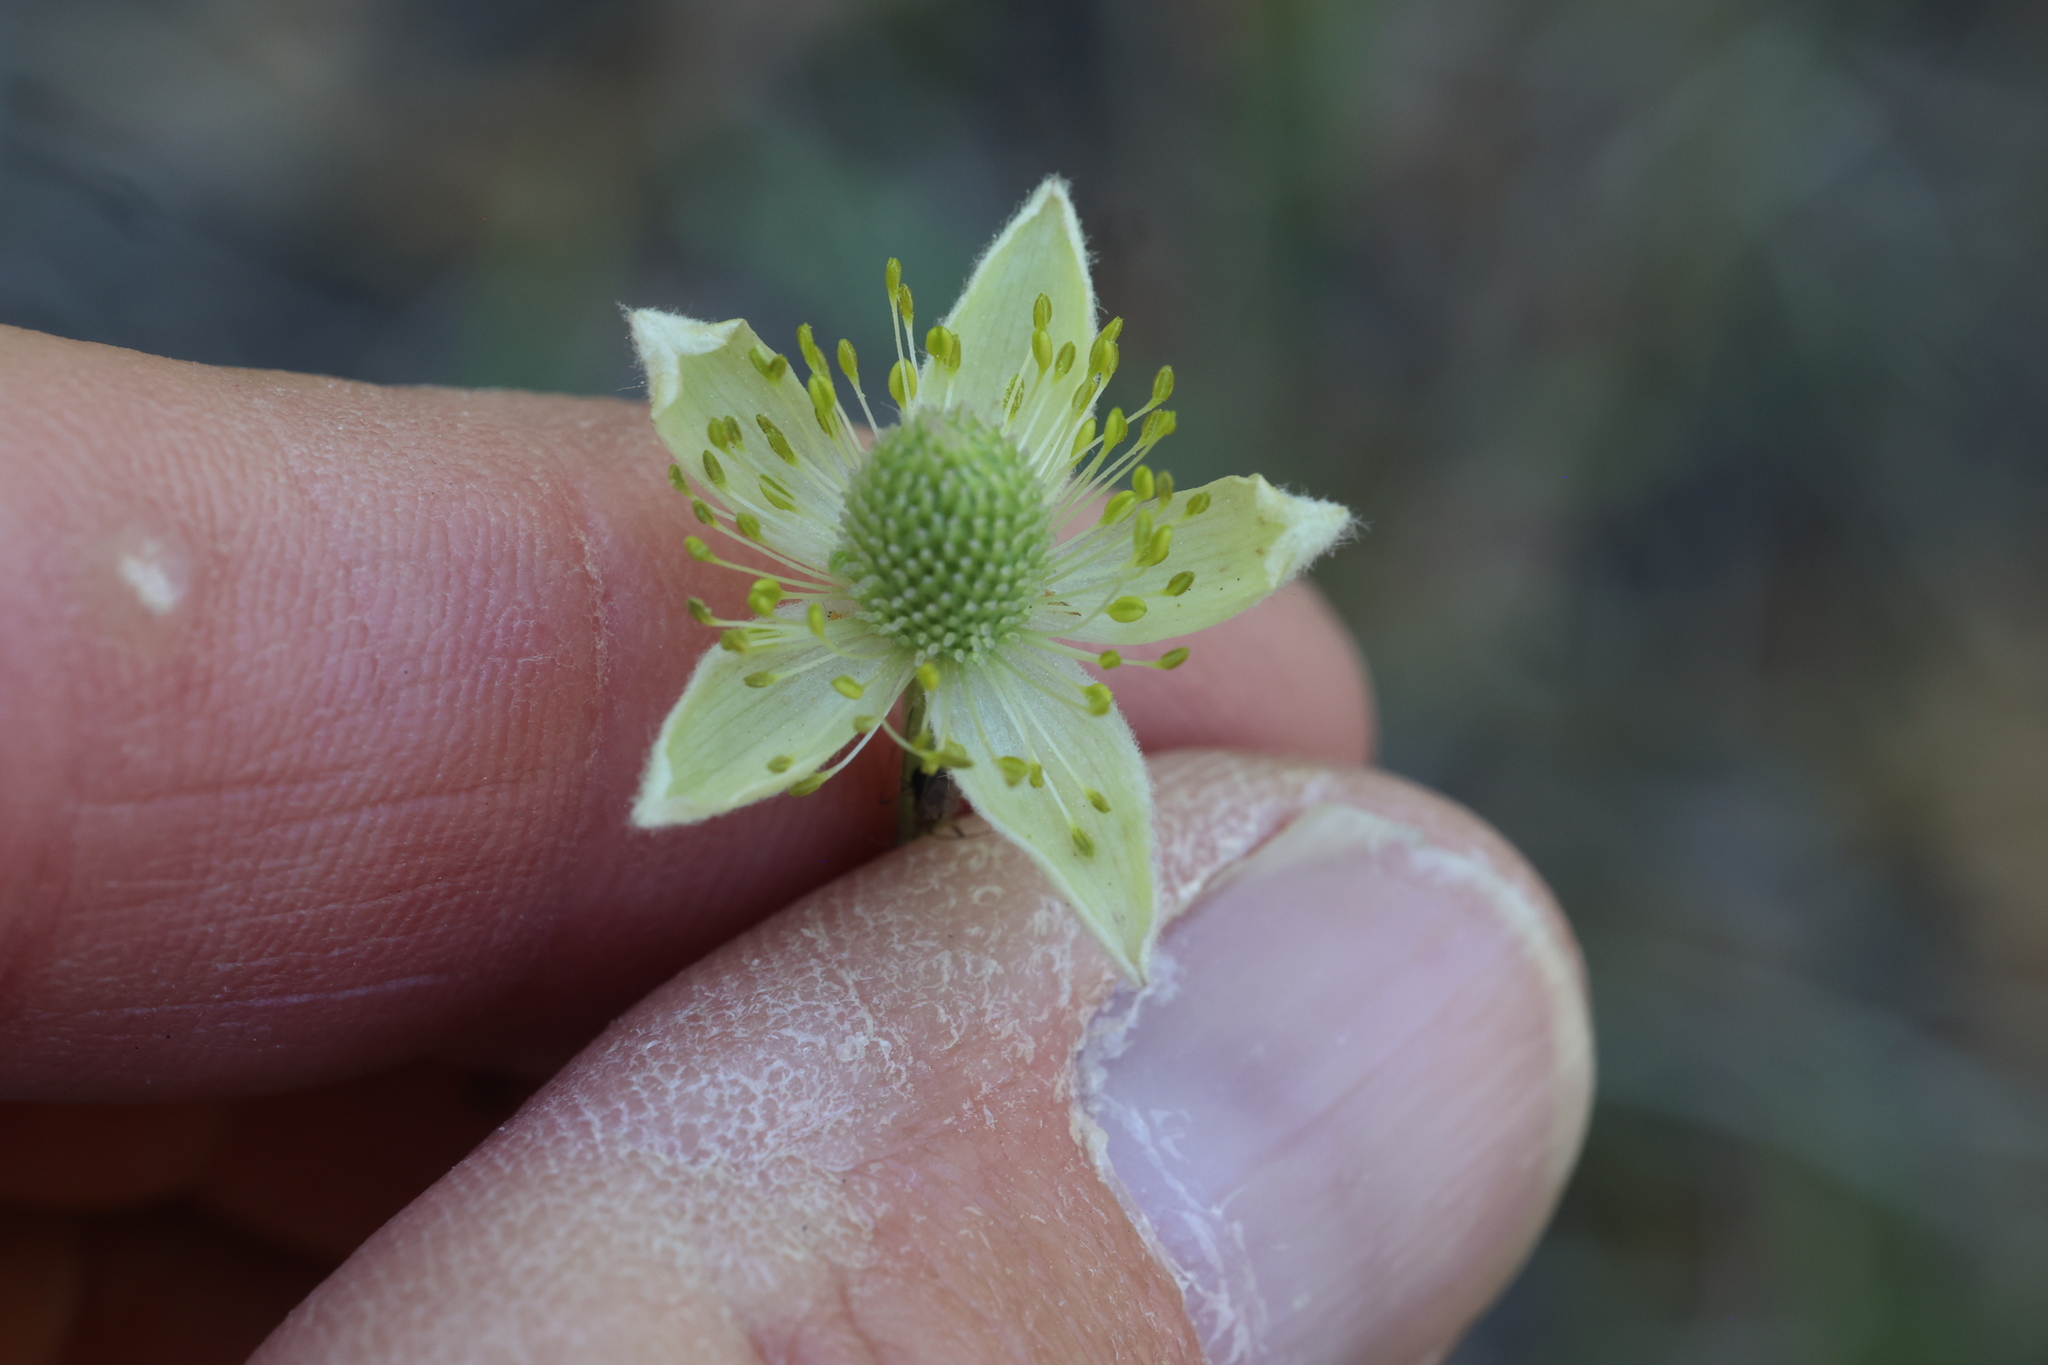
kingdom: Plantae
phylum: Tracheophyta
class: Magnoliopsida
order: Ranunculales
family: Ranunculaceae
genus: Anemone
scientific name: Anemone cylindrica
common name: Candle anemone
